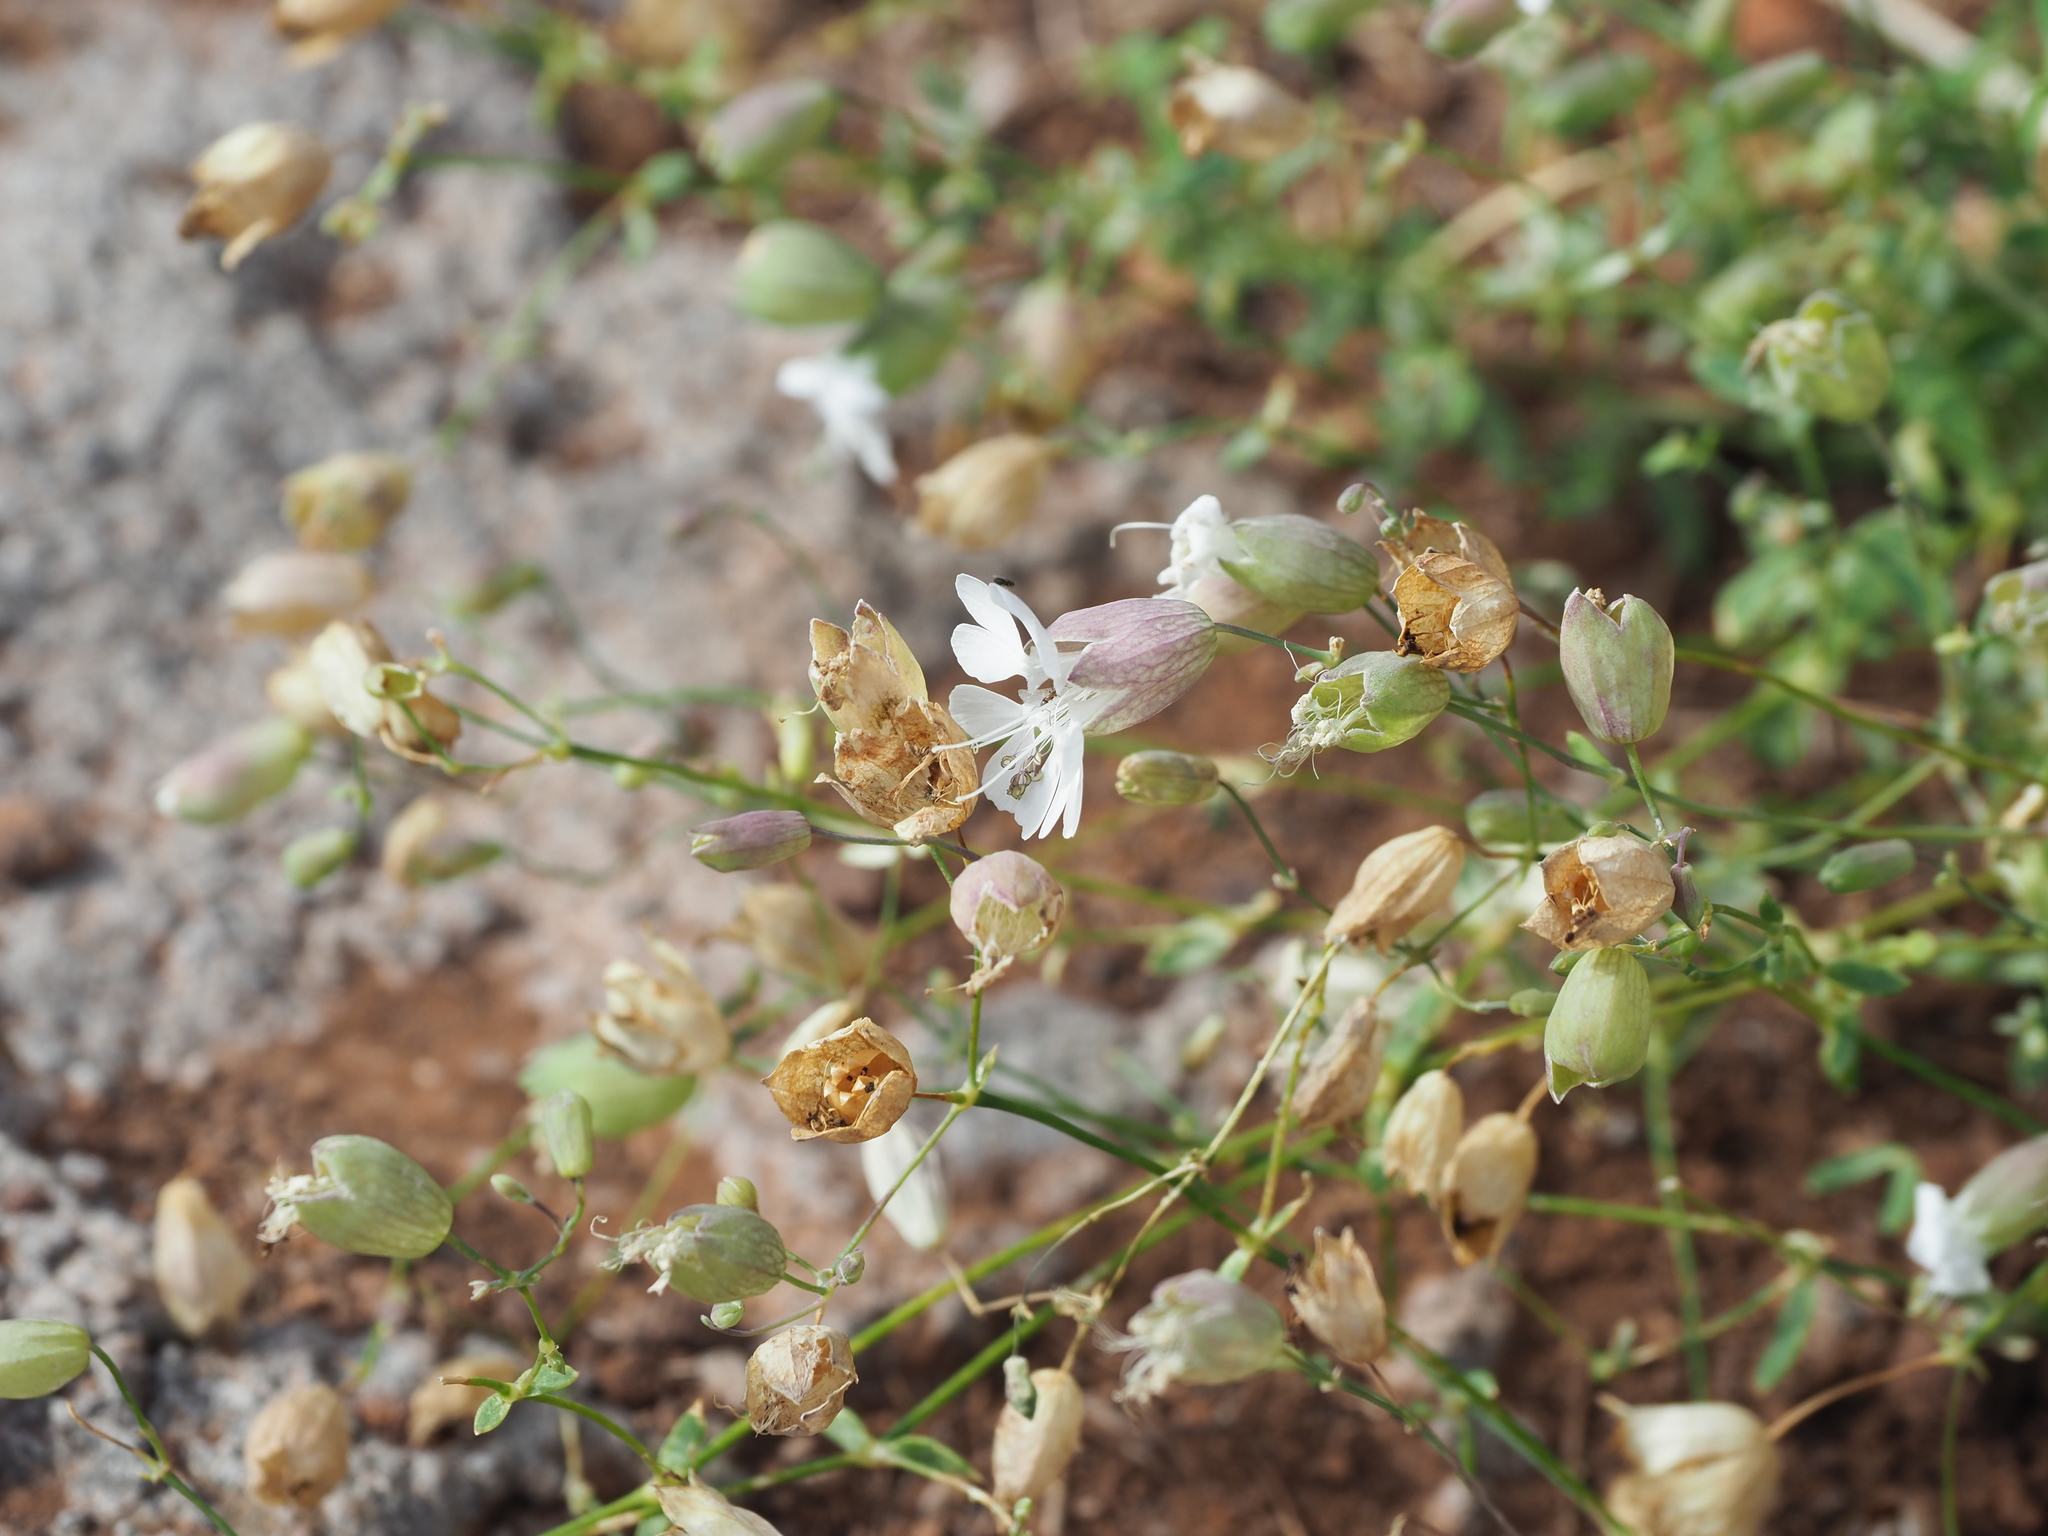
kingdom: Plantae
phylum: Tracheophyta
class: Magnoliopsida
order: Caryophyllales
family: Caryophyllaceae
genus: Silene
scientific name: Silene uniflora
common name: Sea campion
